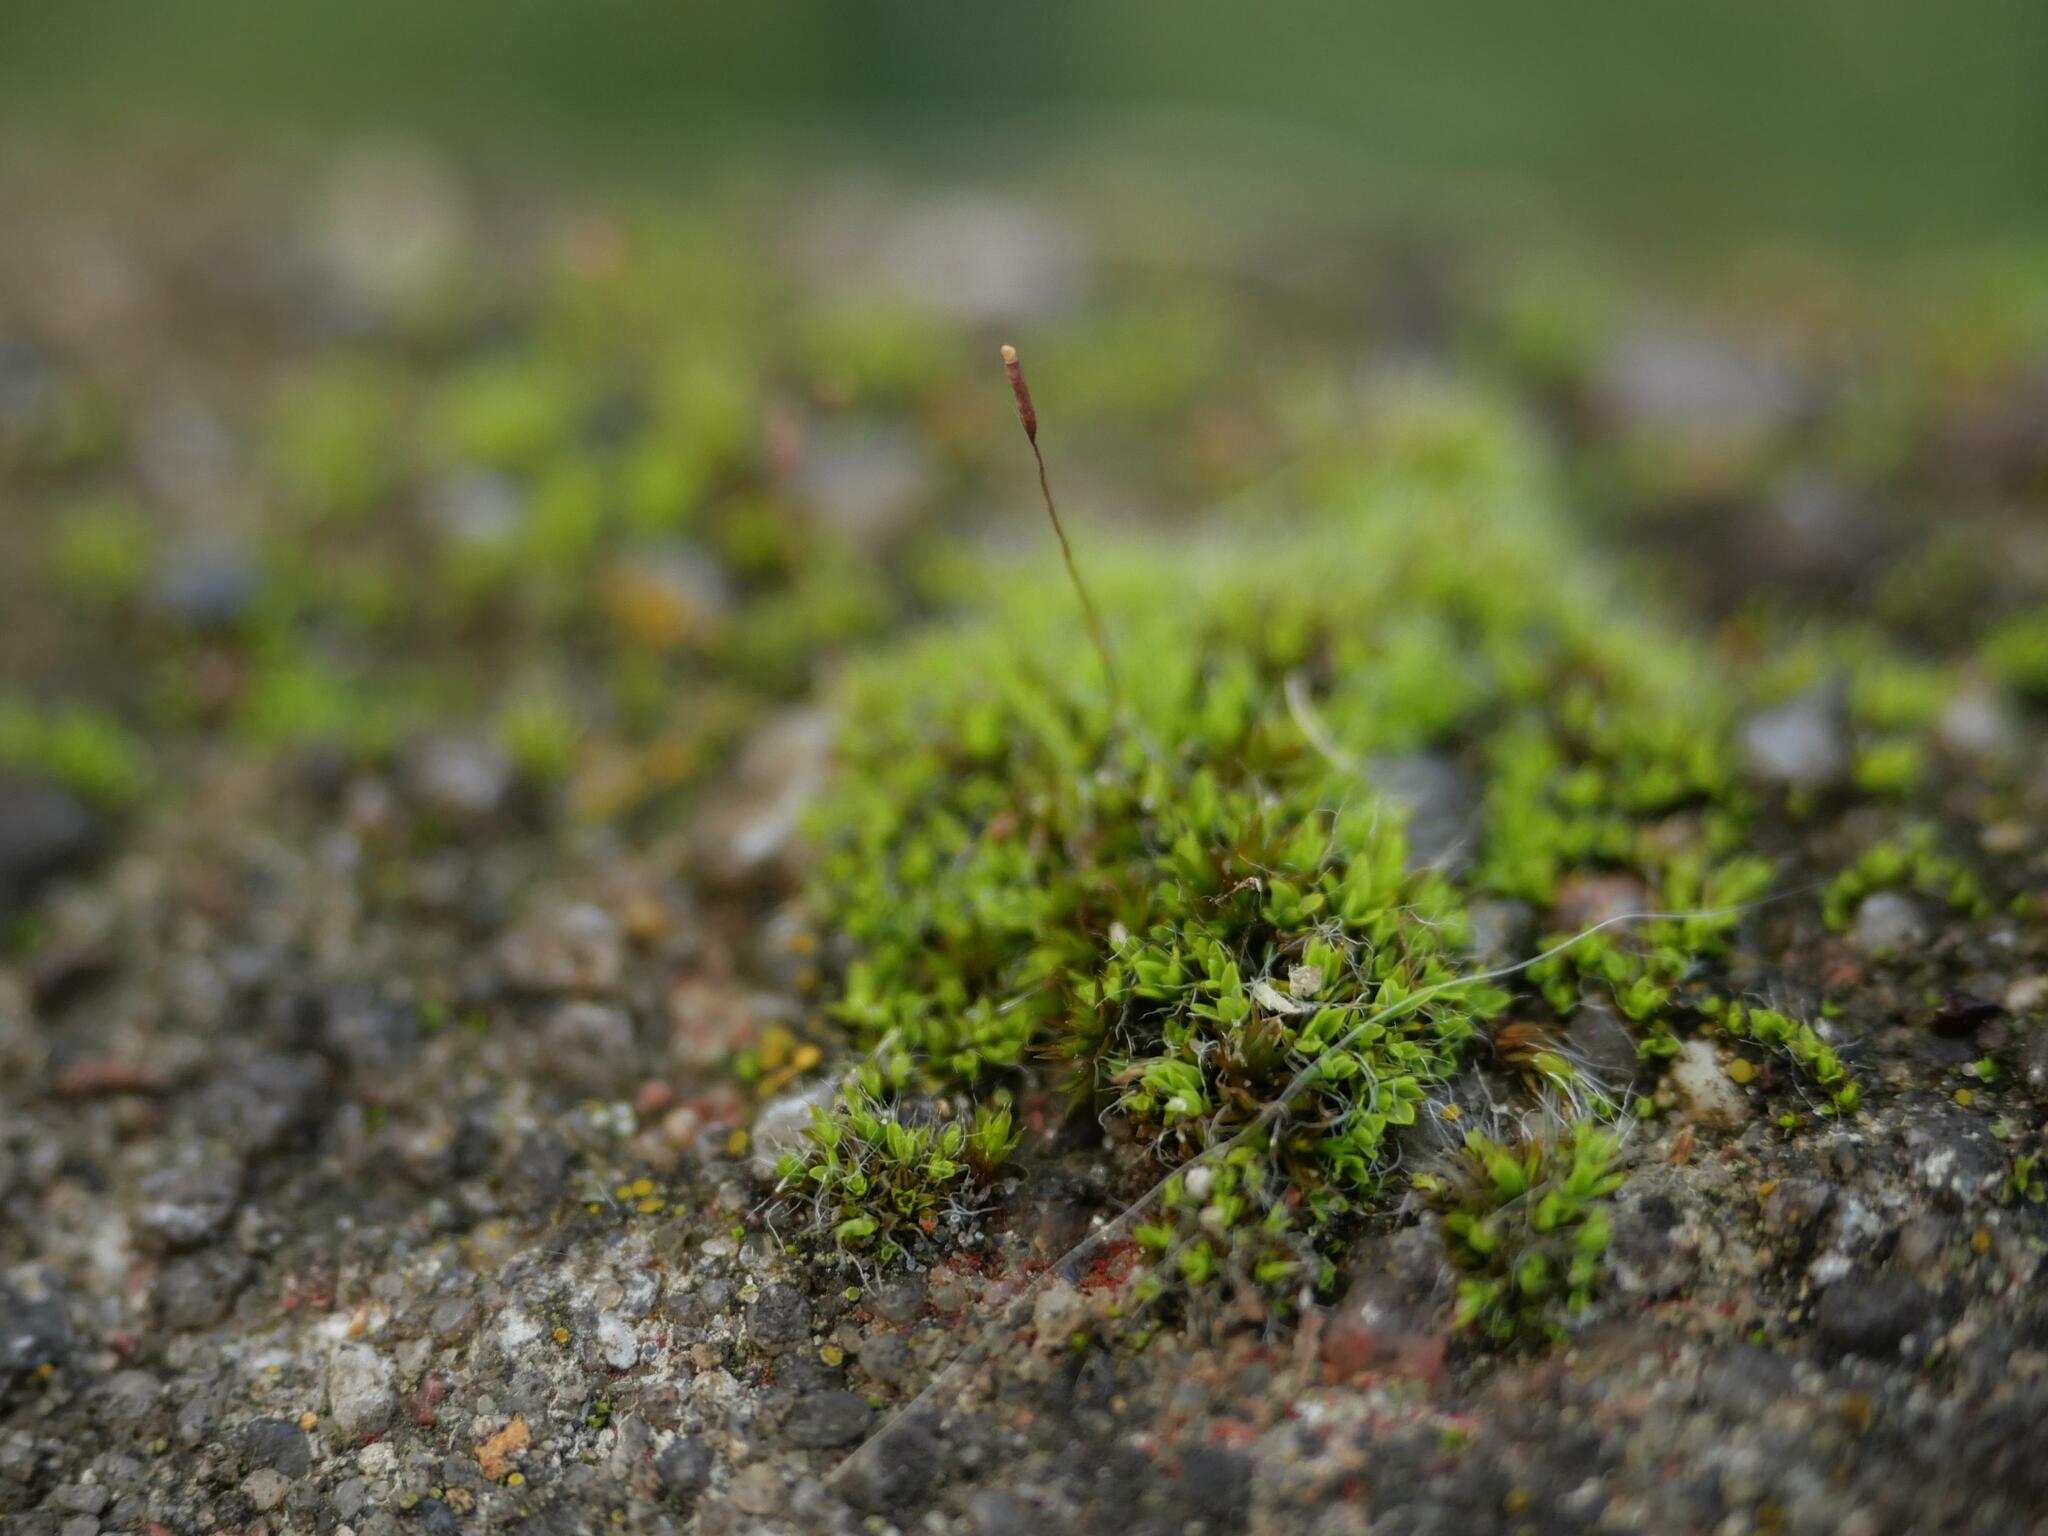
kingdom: Plantae
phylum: Bryophyta
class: Bryopsida
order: Pottiales
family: Pottiaceae
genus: Tortula
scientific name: Tortula muralis
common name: Wall screw-moss
